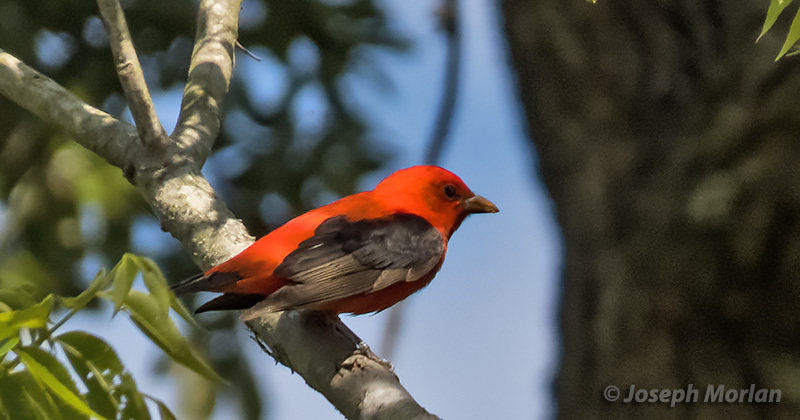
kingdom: Animalia
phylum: Chordata
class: Aves
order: Passeriformes
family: Cardinalidae
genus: Piranga
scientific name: Piranga olivacea
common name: Scarlet tanager
